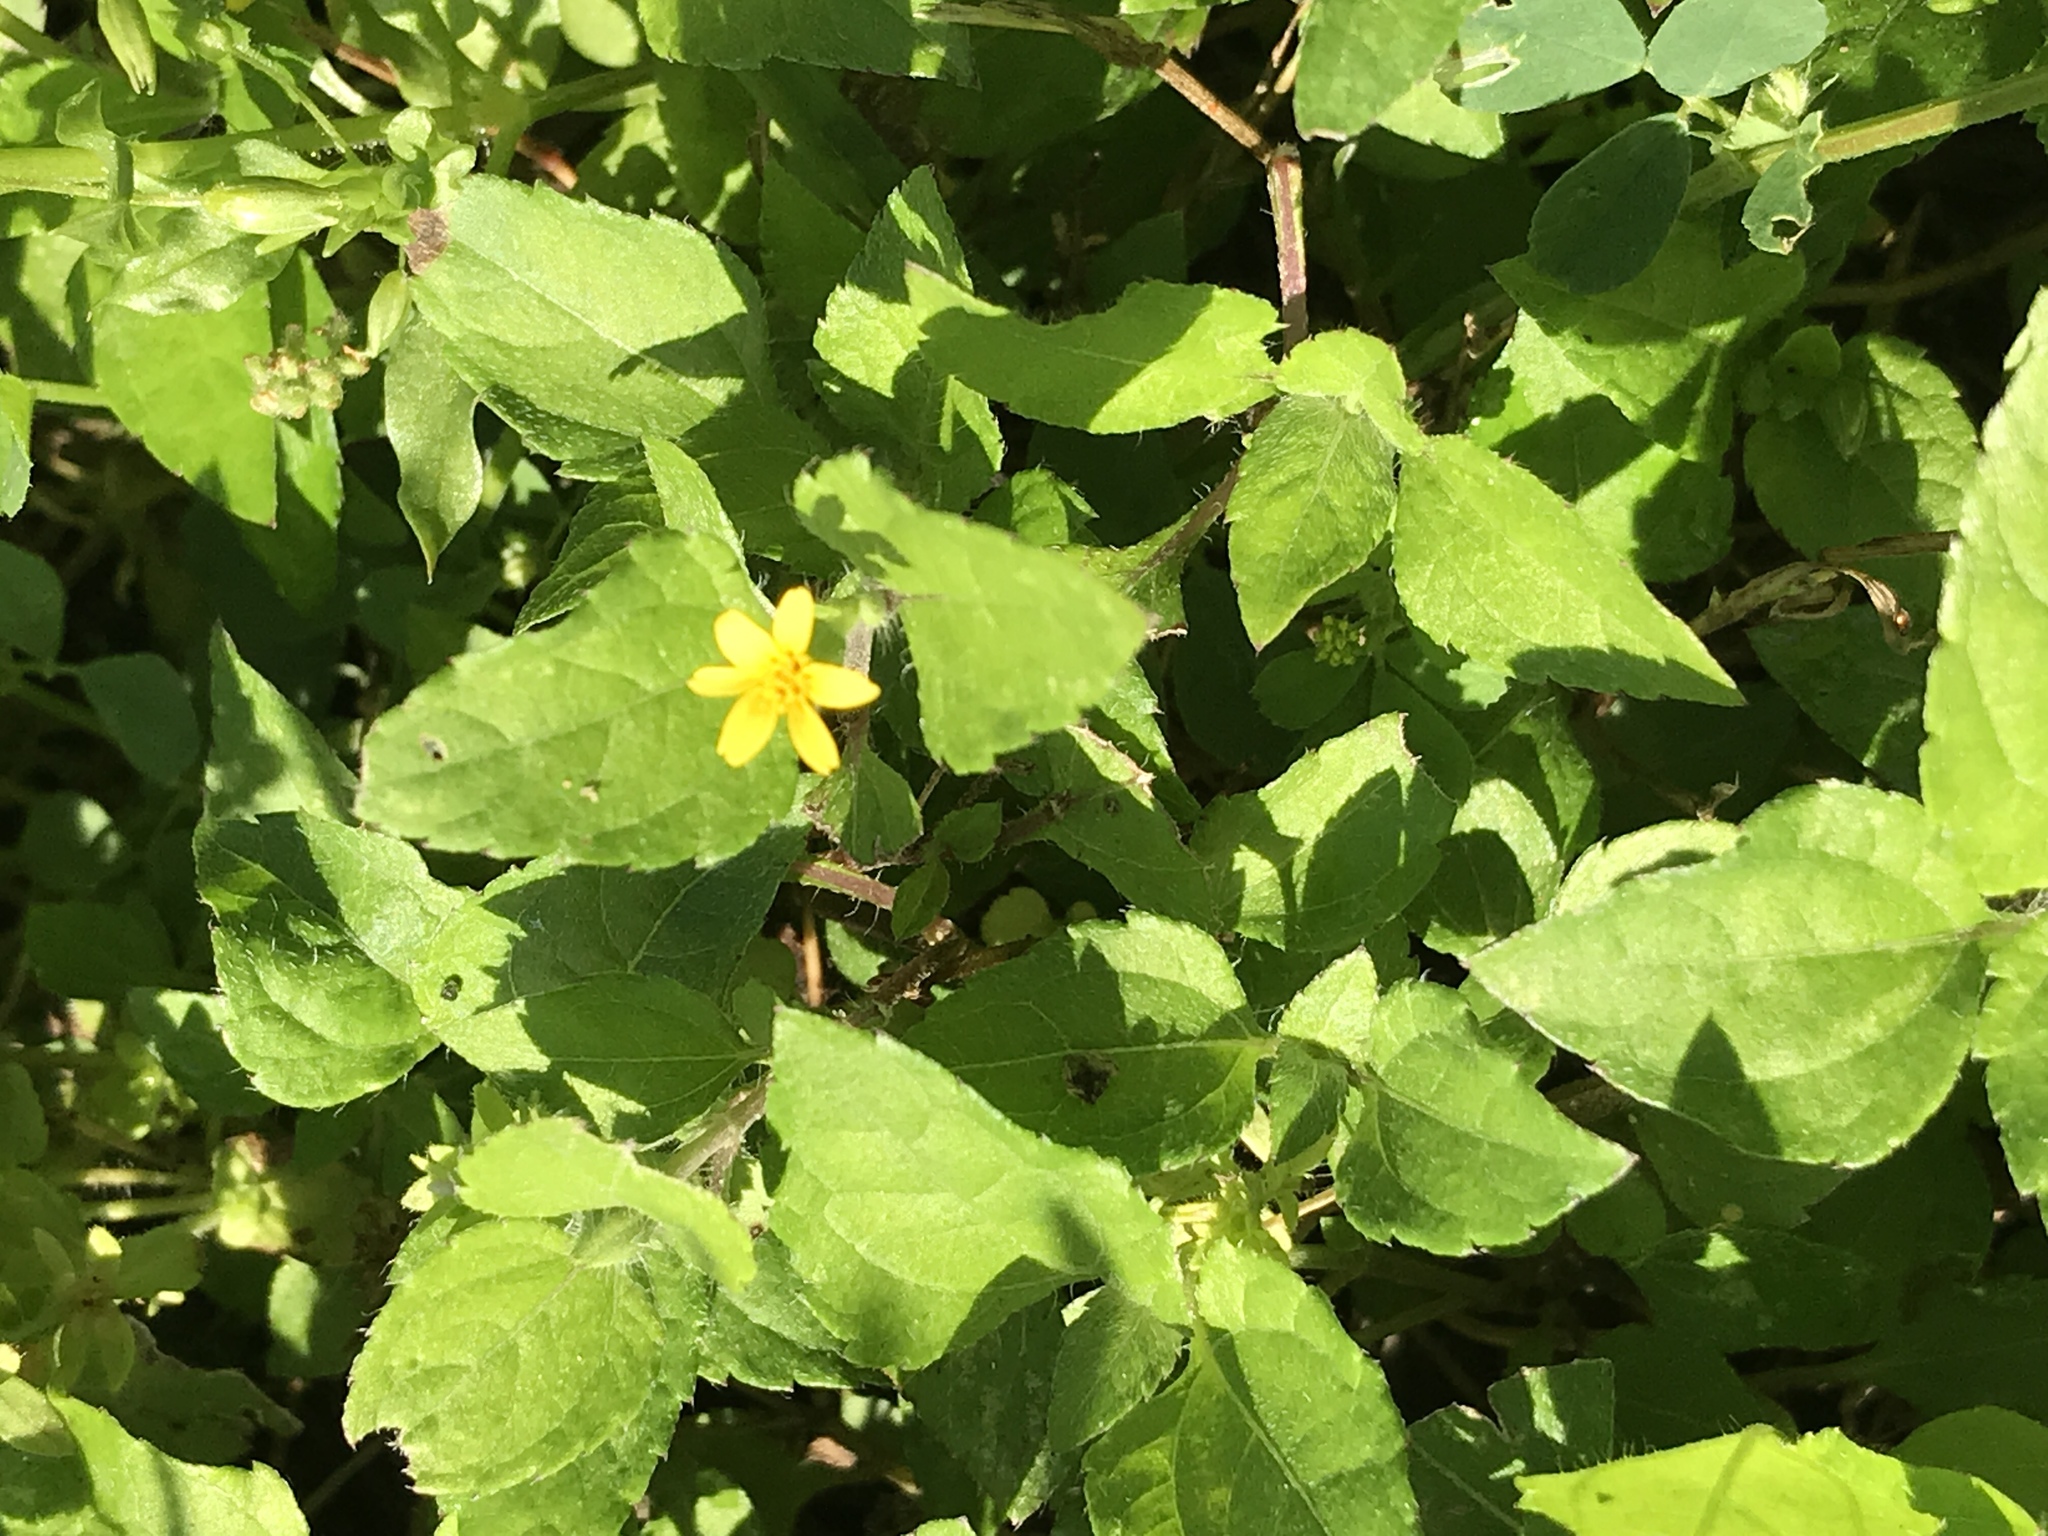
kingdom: Plantae
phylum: Tracheophyta
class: Magnoliopsida
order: Asterales
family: Asteraceae
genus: Calyptocarpus
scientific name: Calyptocarpus vialis
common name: Straggler daisy
